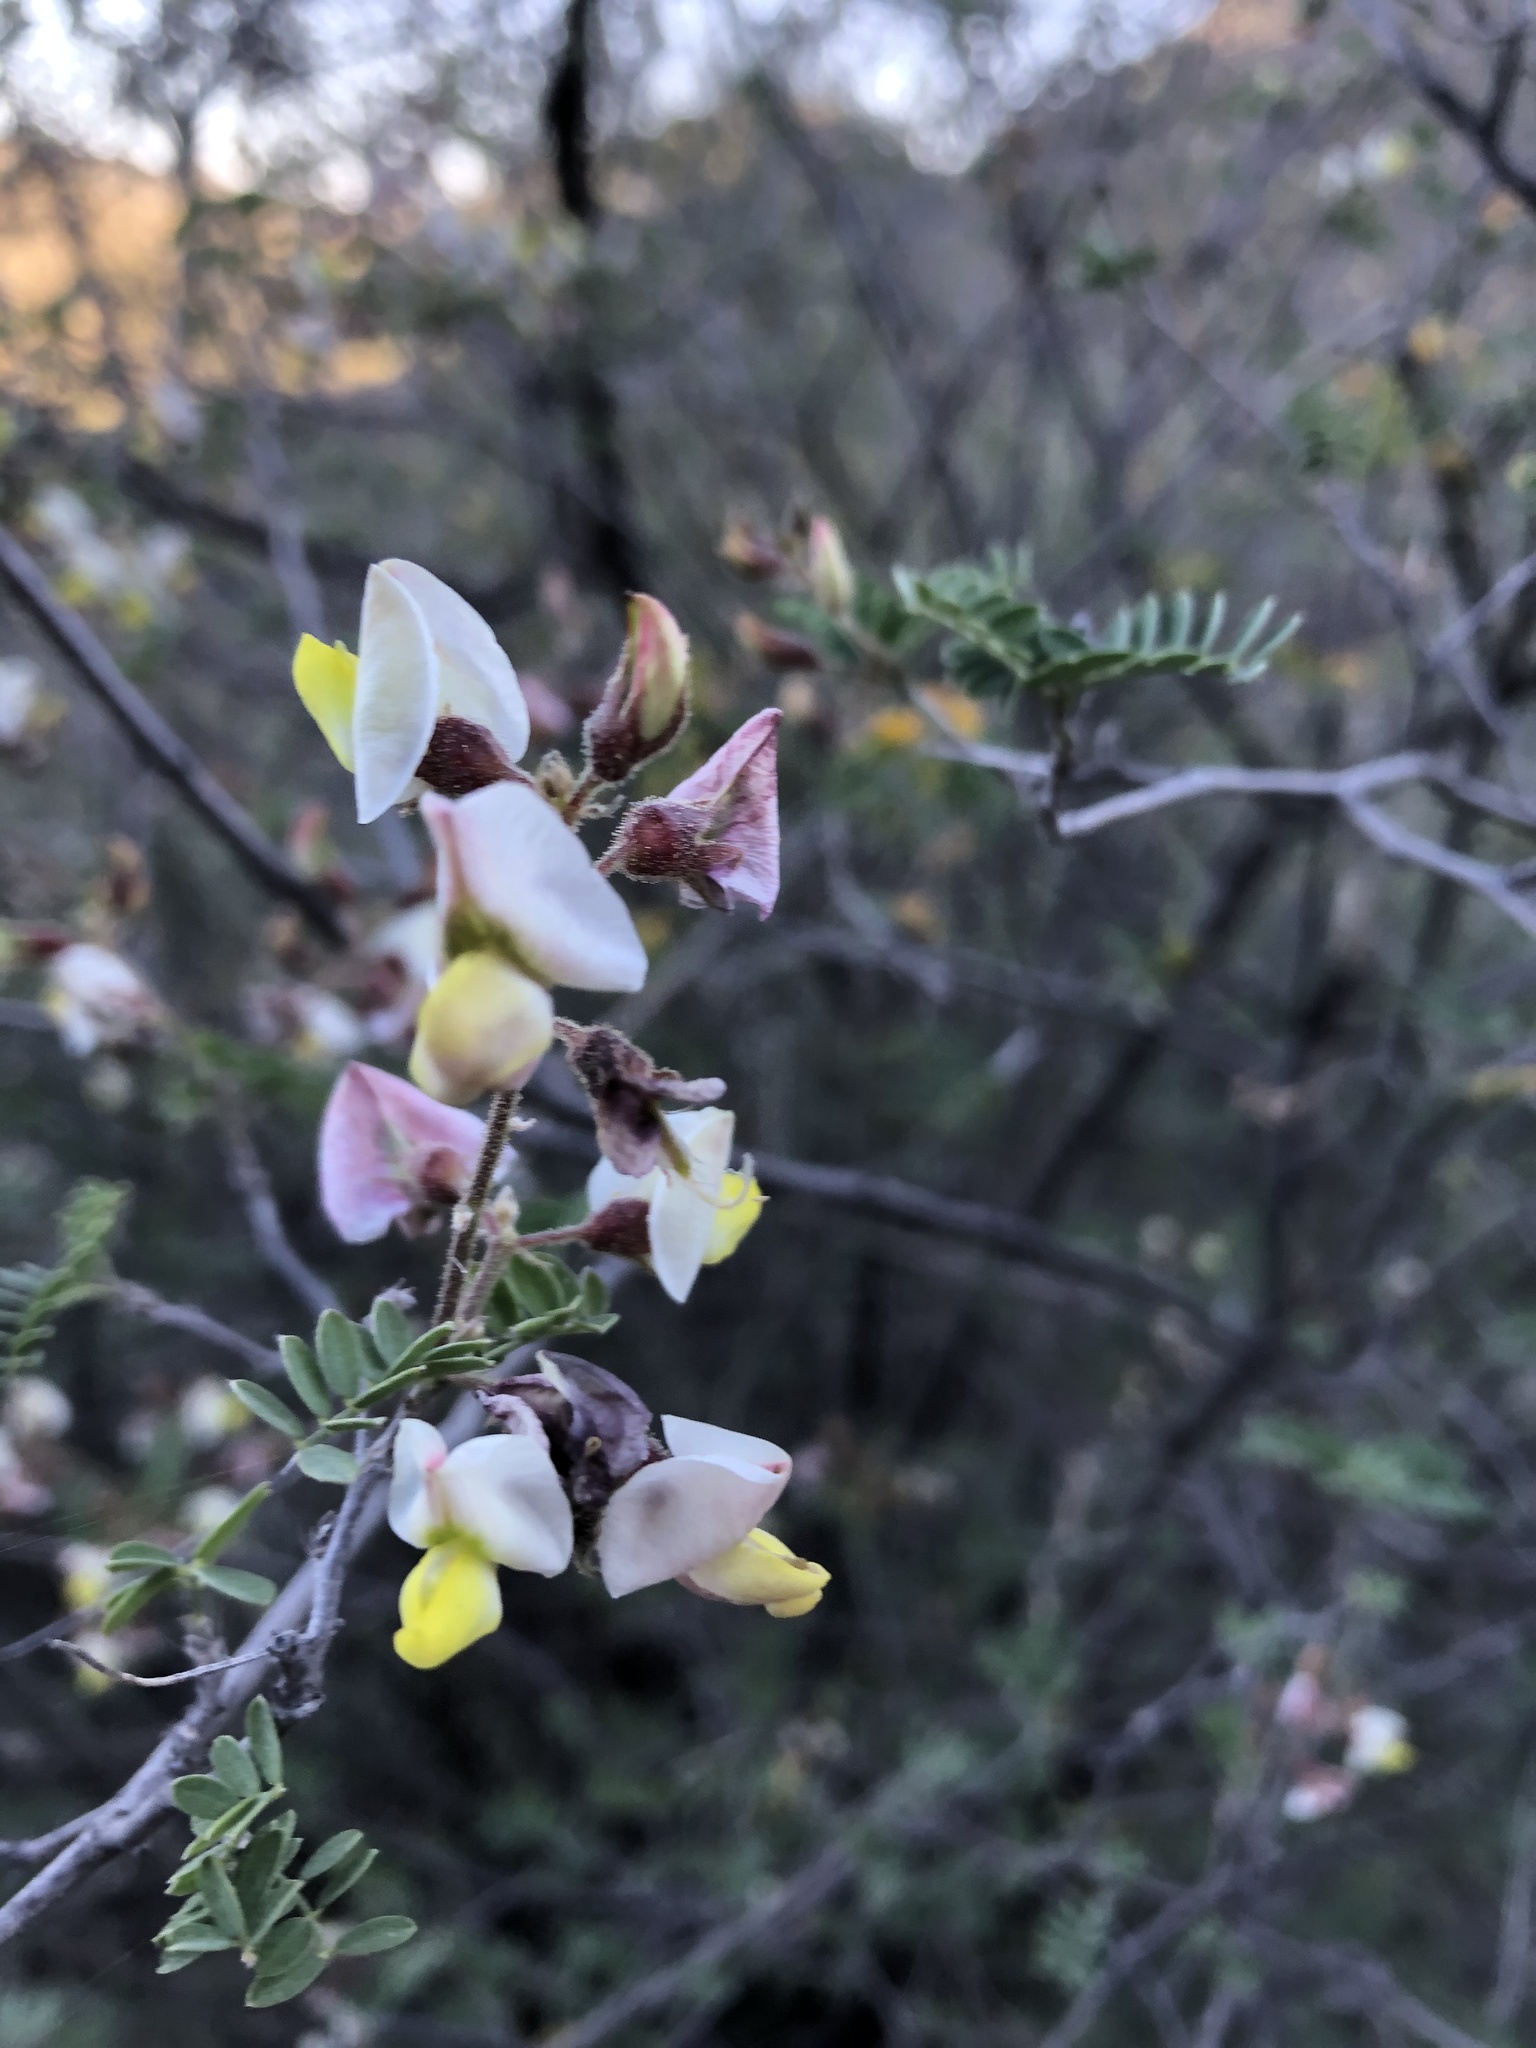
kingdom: Plantae
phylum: Tracheophyta
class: Magnoliopsida
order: Fabales
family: Fabaceae
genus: Coursetia
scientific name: Coursetia glandulosa
